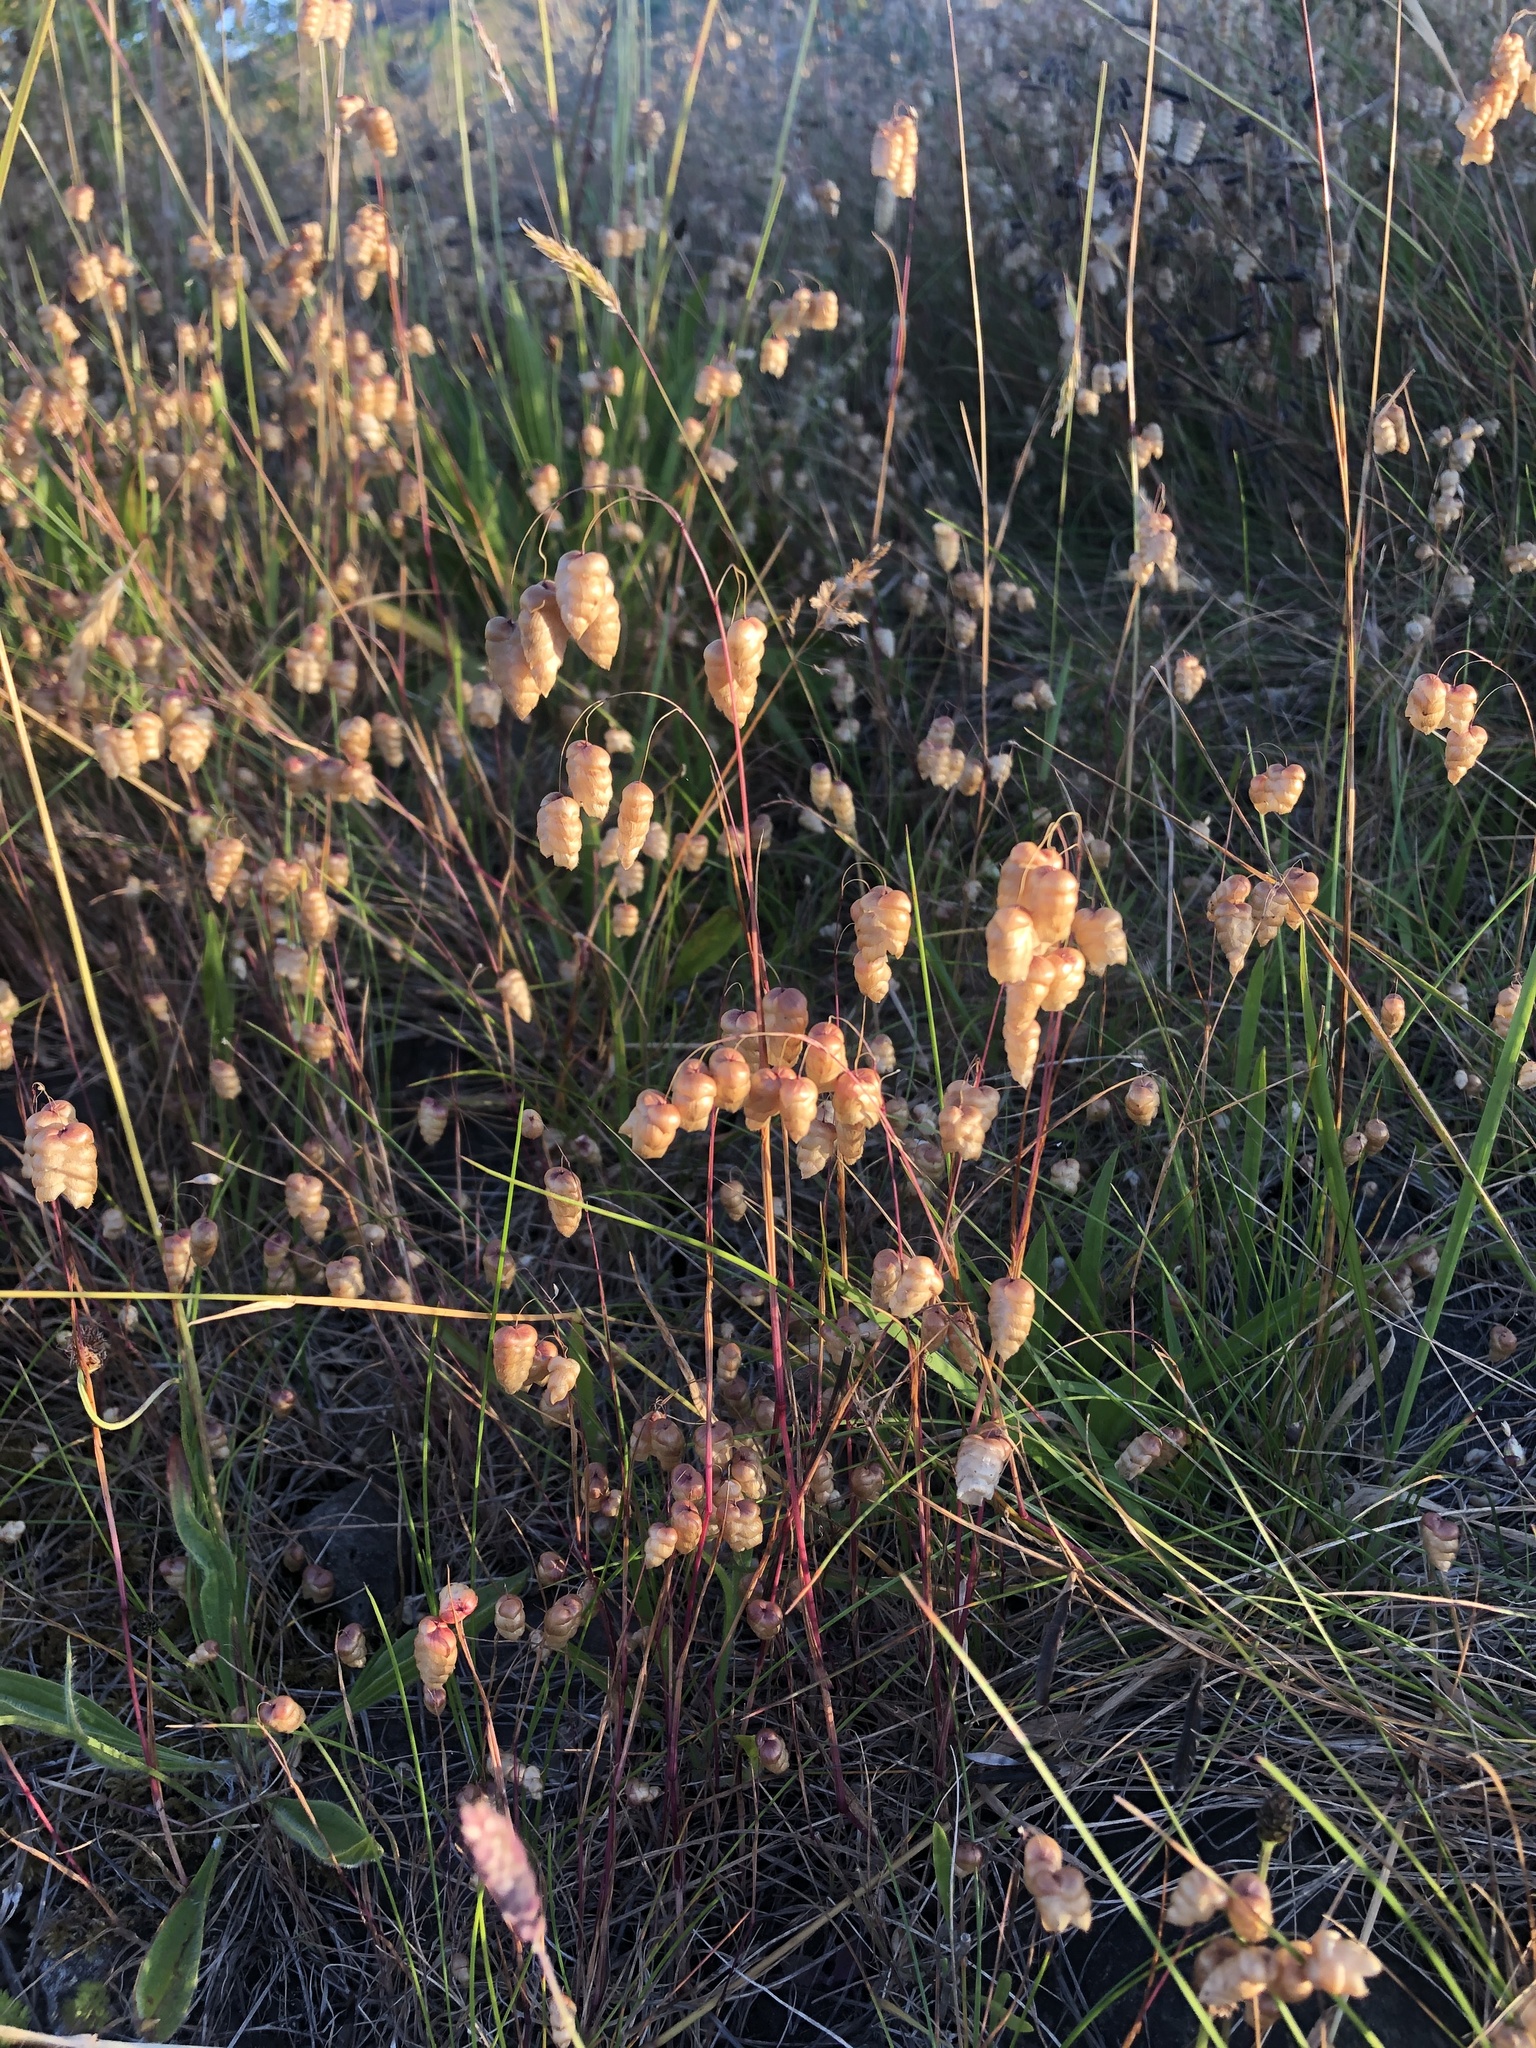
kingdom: Plantae
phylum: Tracheophyta
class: Liliopsida
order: Poales
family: Poaceae
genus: Briza
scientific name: Briza maxima
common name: Big quakinggrass
